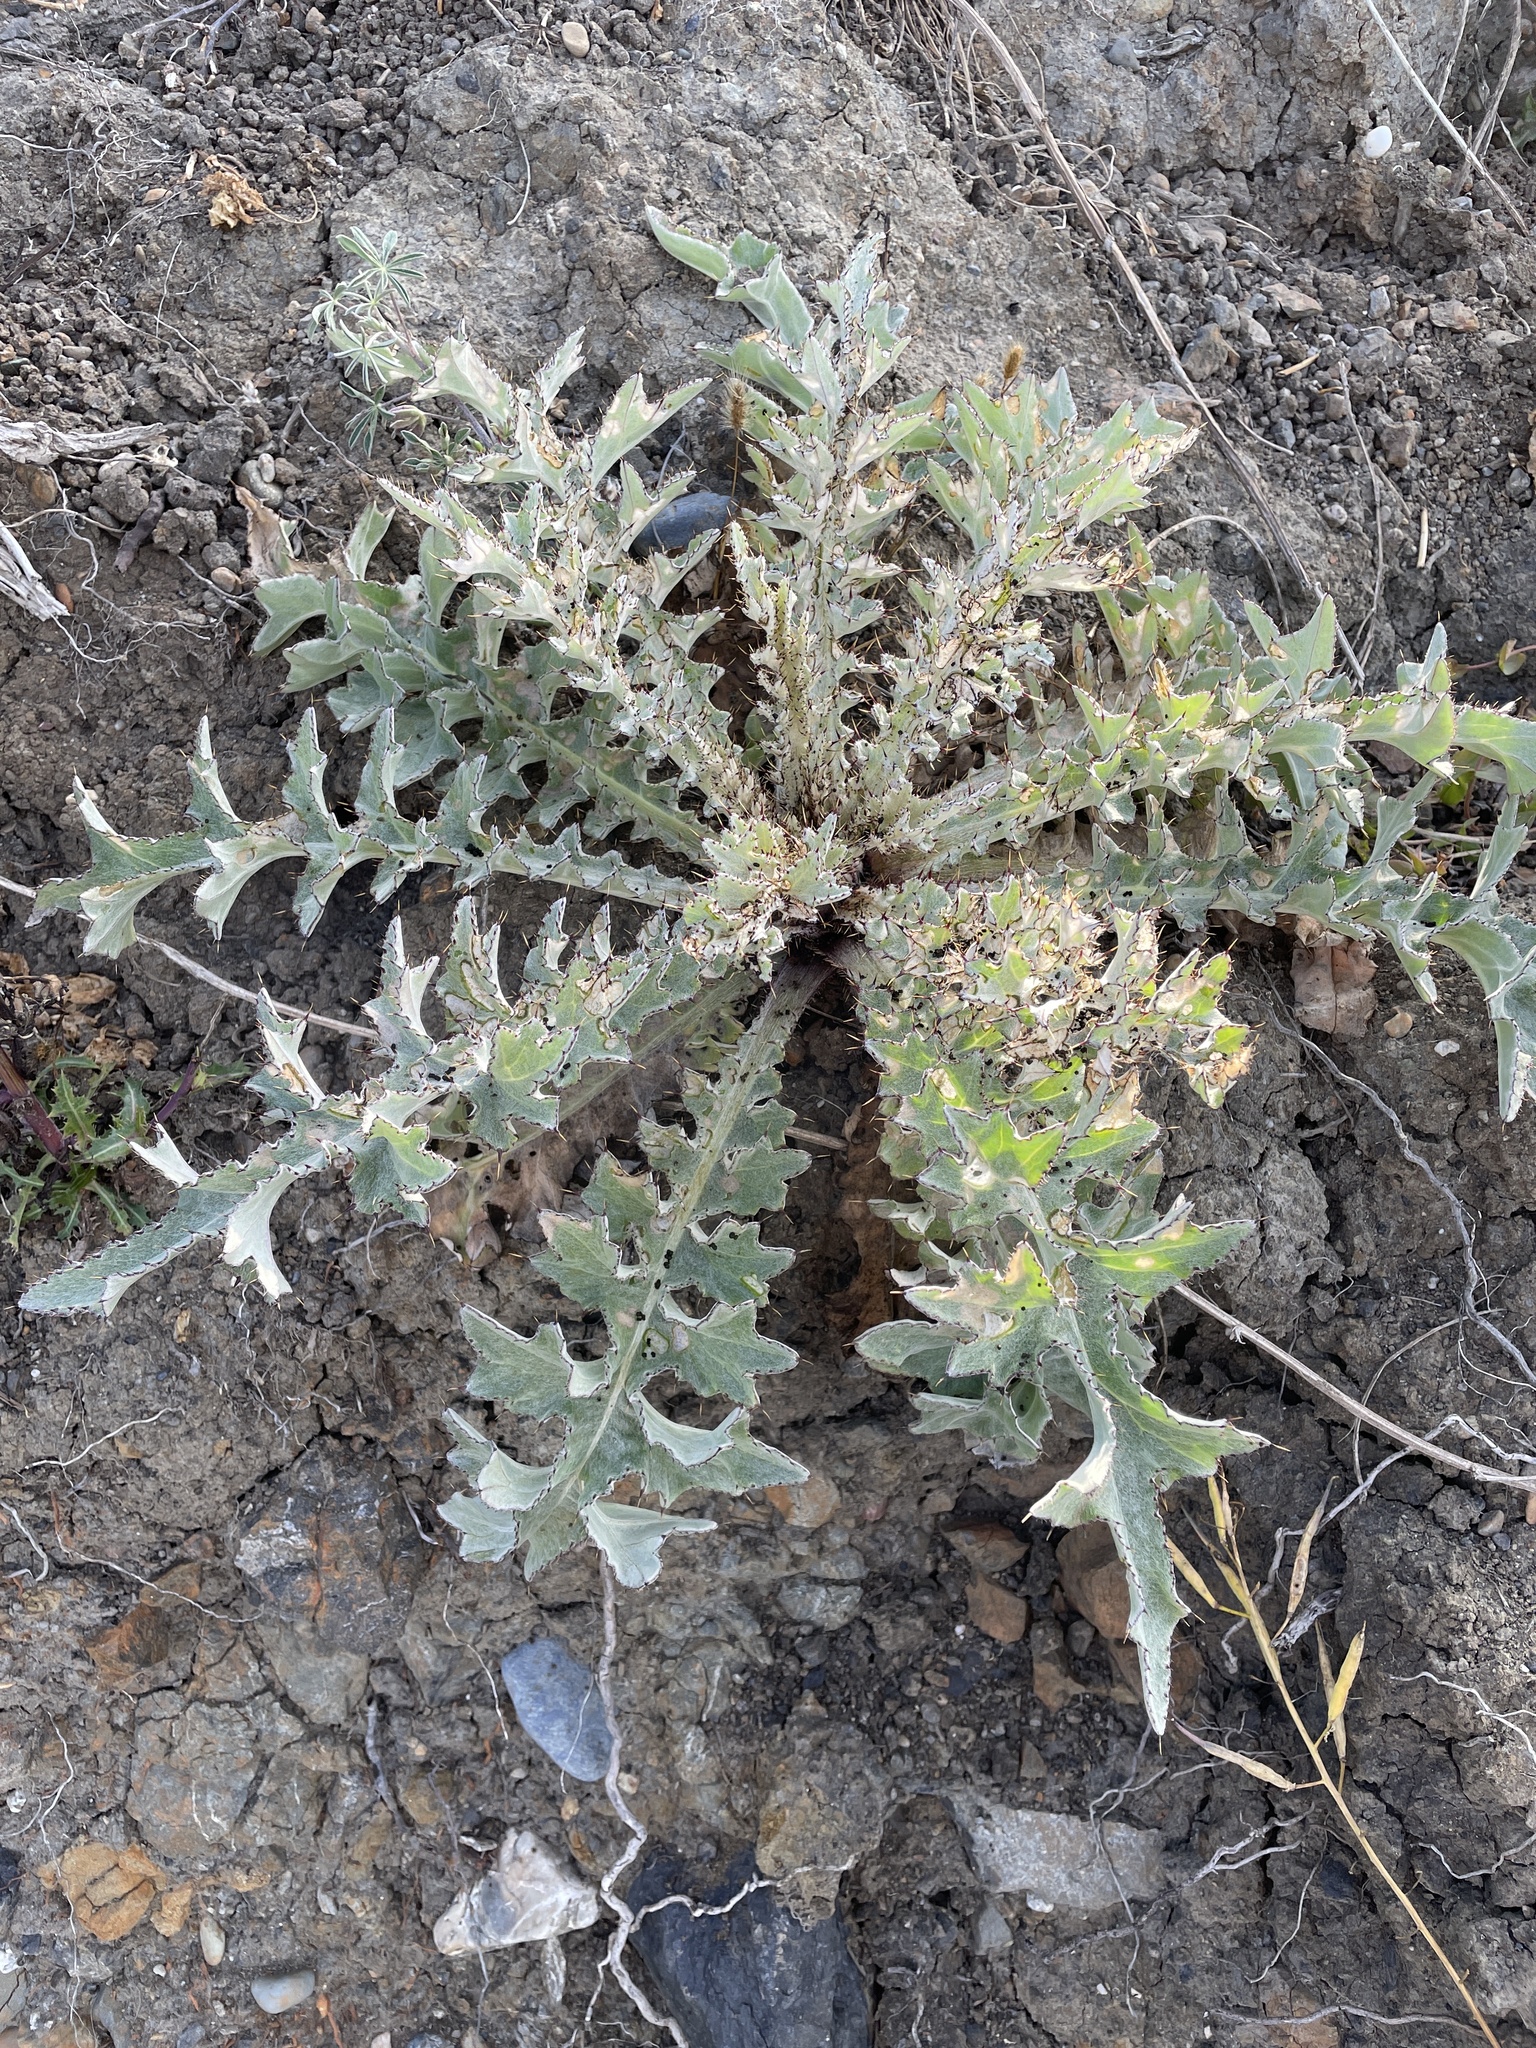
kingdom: Plantae
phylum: Tracheophyta
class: Magnoliopsida
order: Asterales
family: Asteraceae
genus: Cirsium
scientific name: Cirsium douglasii
